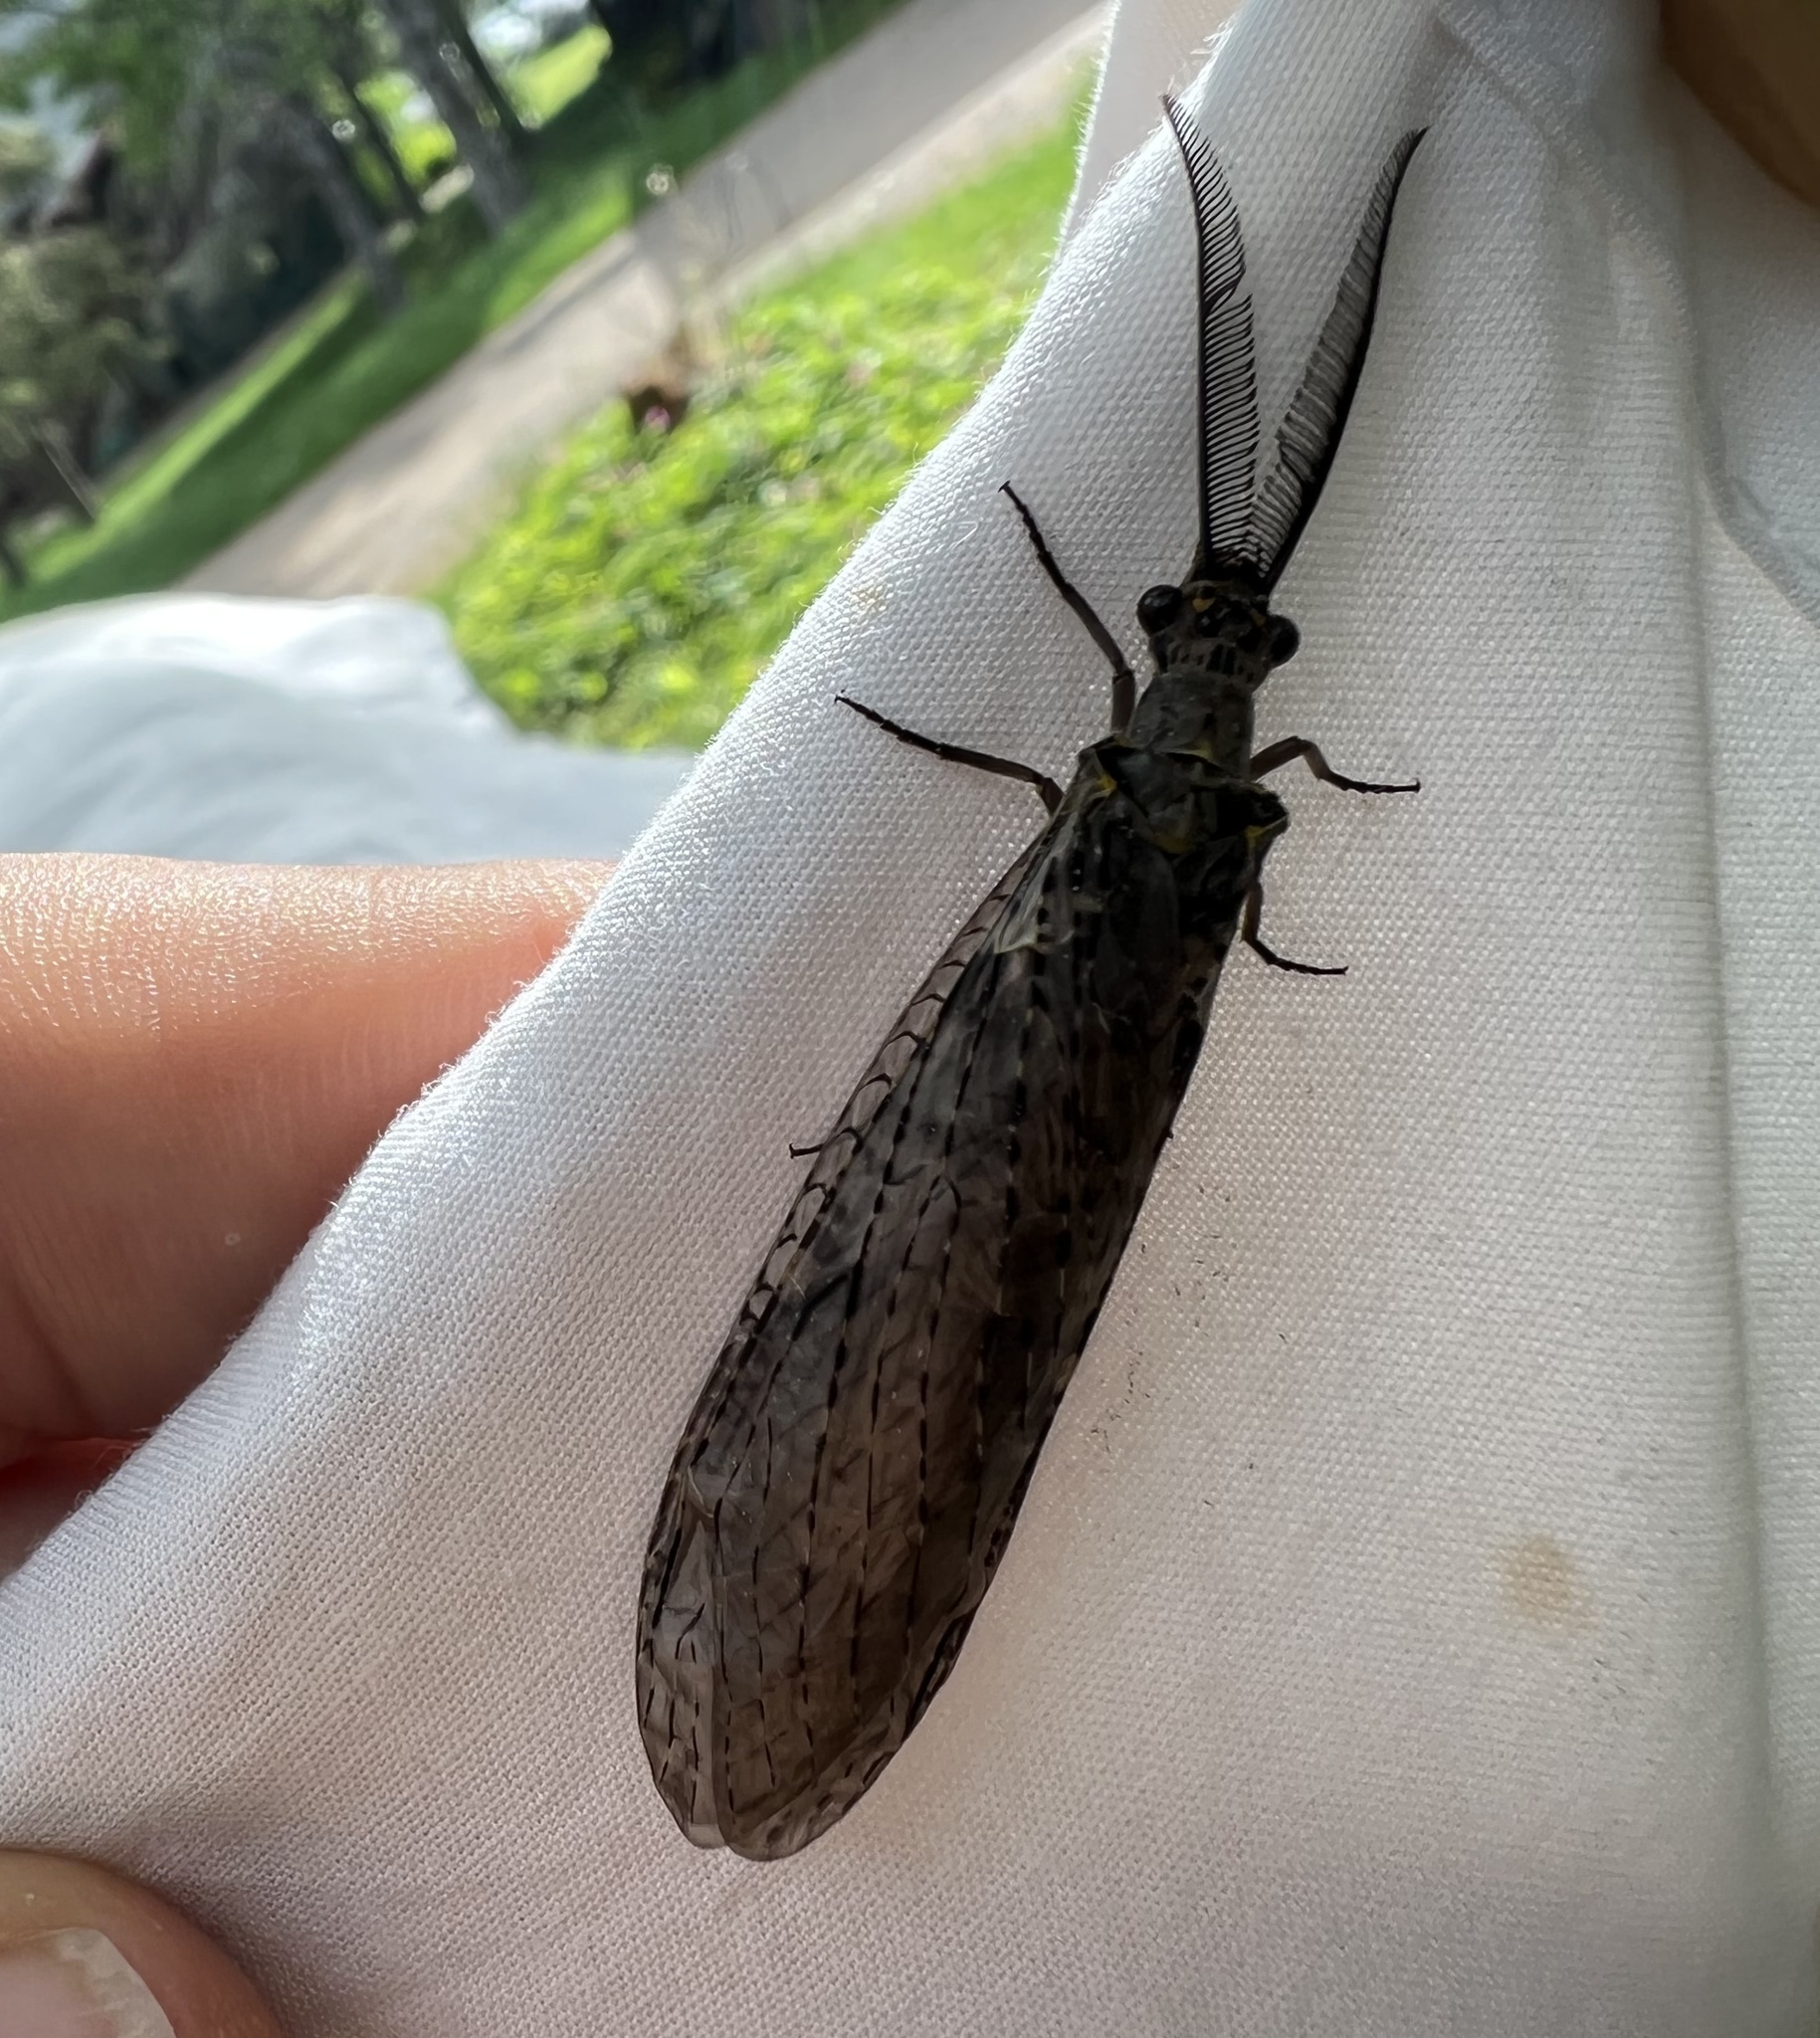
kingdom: Animalia
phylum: Arthropoda
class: Insecta
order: Megaloptera
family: Corydalidae
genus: Chauliodes
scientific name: Chauliodes rastricornis
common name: Spring fishfly
